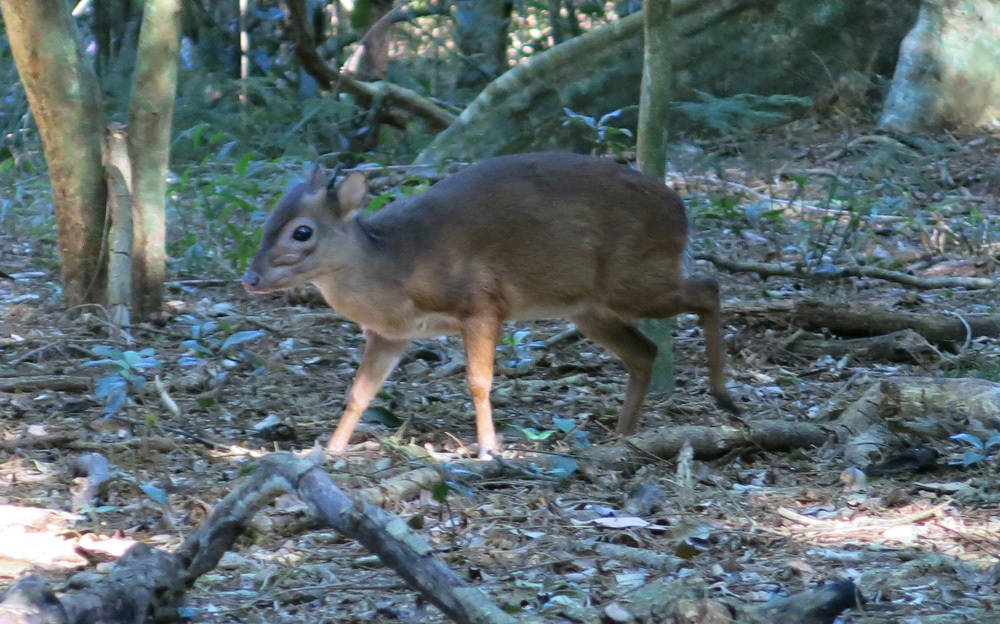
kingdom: Animalia
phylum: Chordata
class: Mammalia
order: Artiodactyla
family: Bovidae
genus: Philantomba
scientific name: Philantomba monticola
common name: Blue duiker
